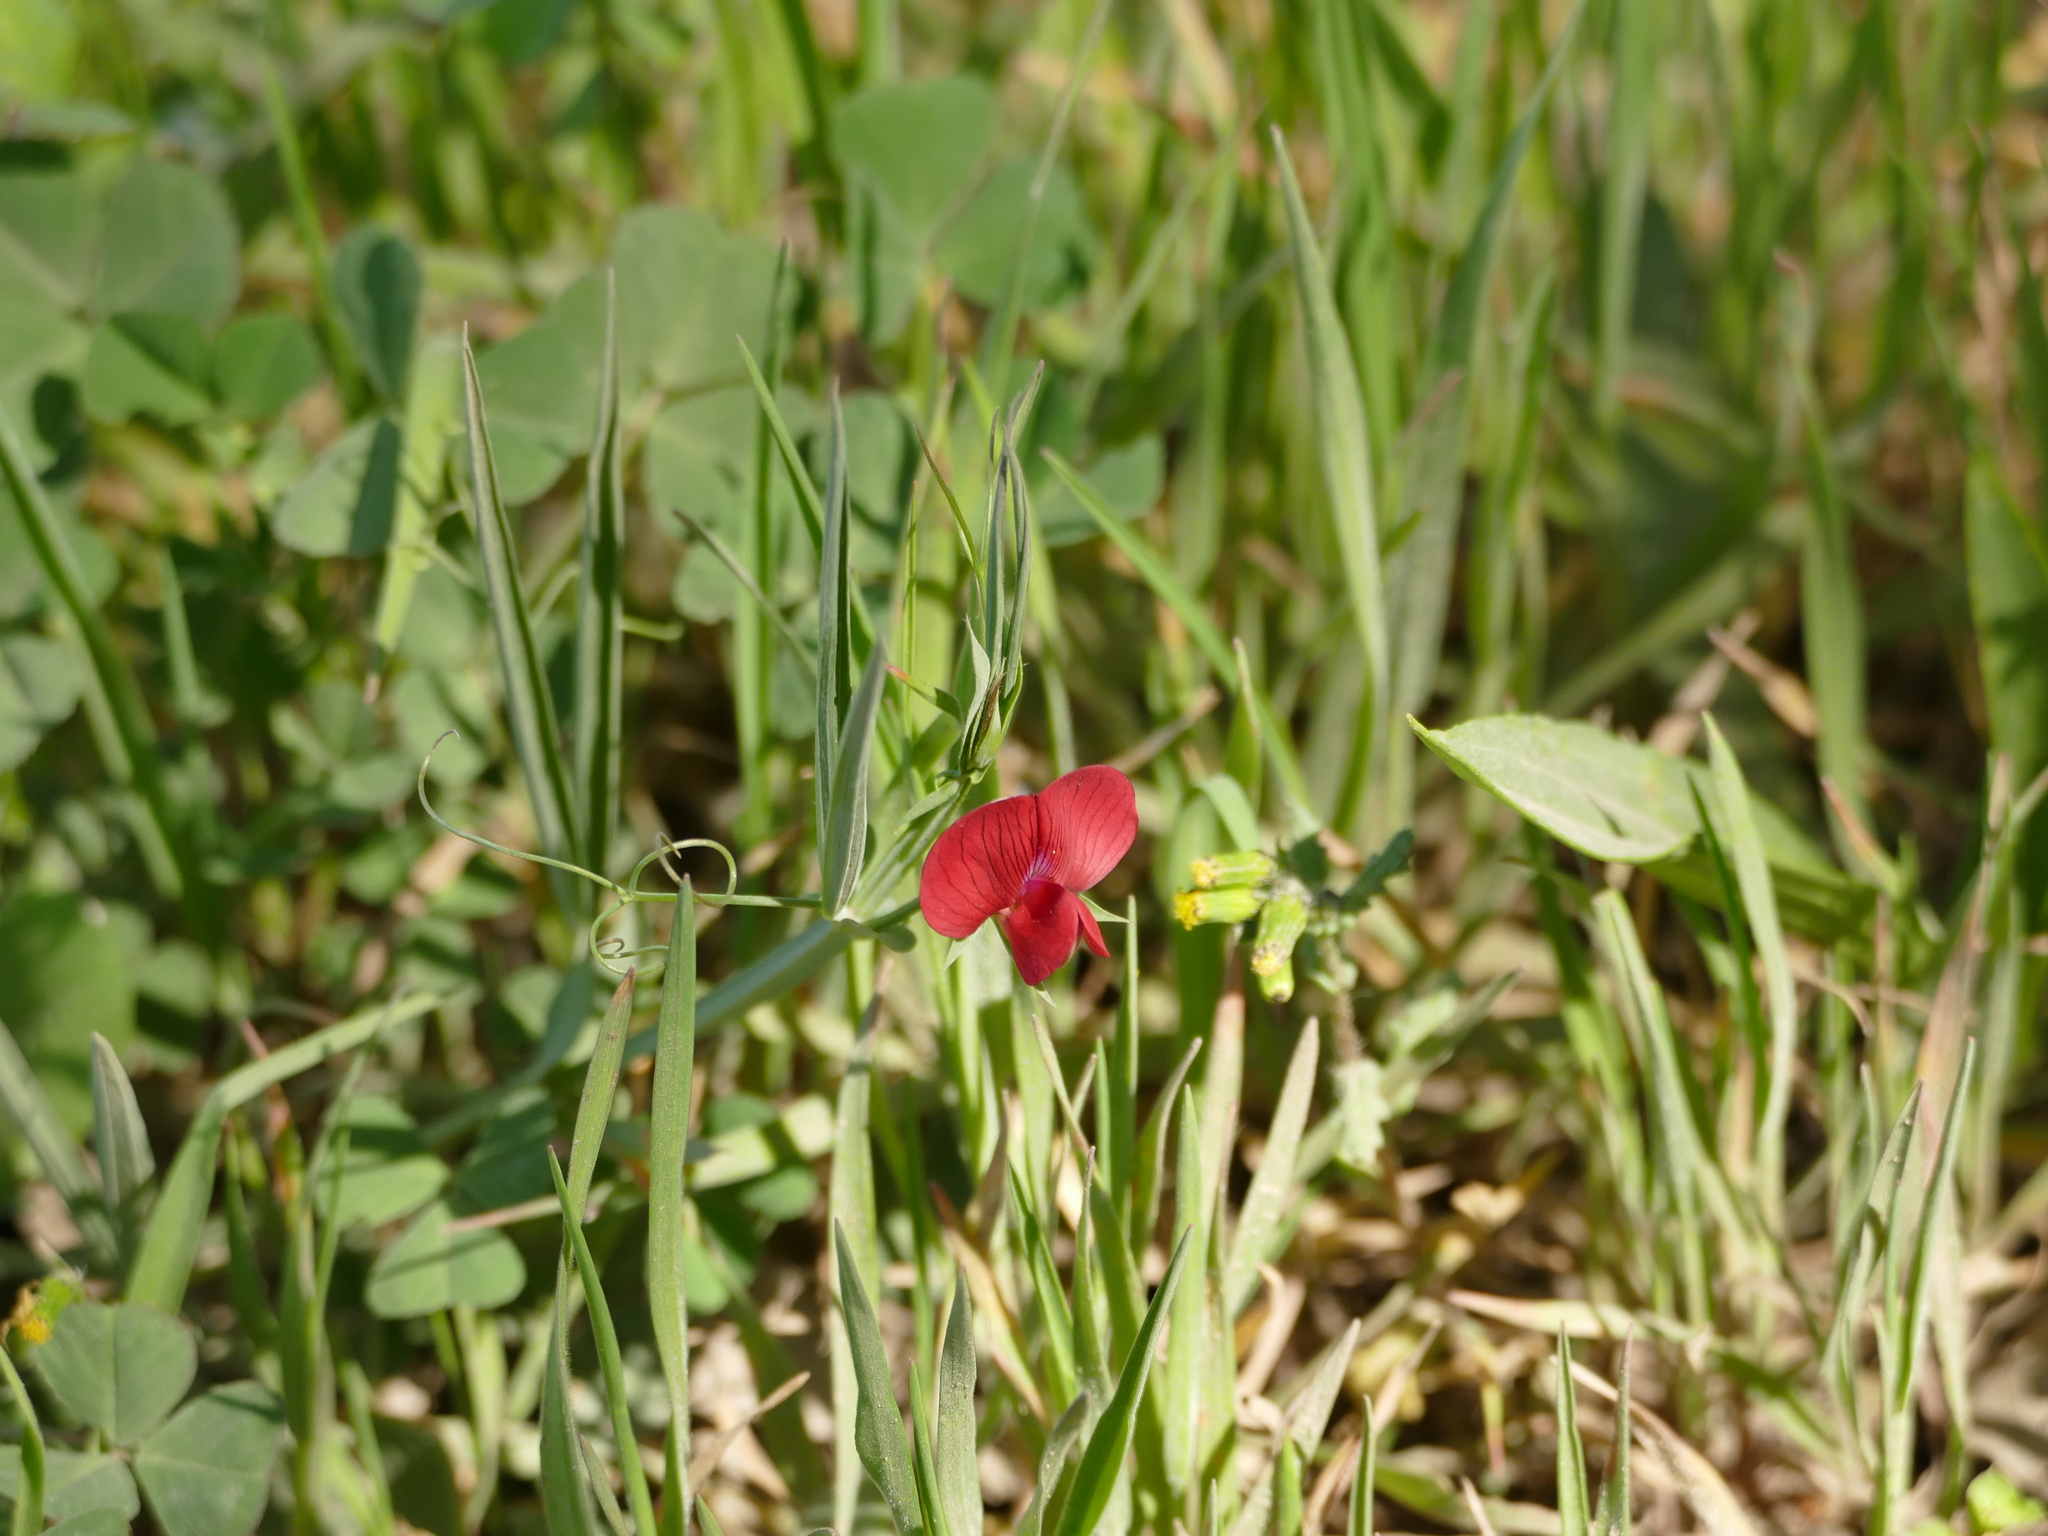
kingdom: Plantae
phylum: Tracheophyta
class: Magnoliopsida
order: Fabales
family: Fabaceae
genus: Lathyrus
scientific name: Lathyrus cicera
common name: Red vetchling
